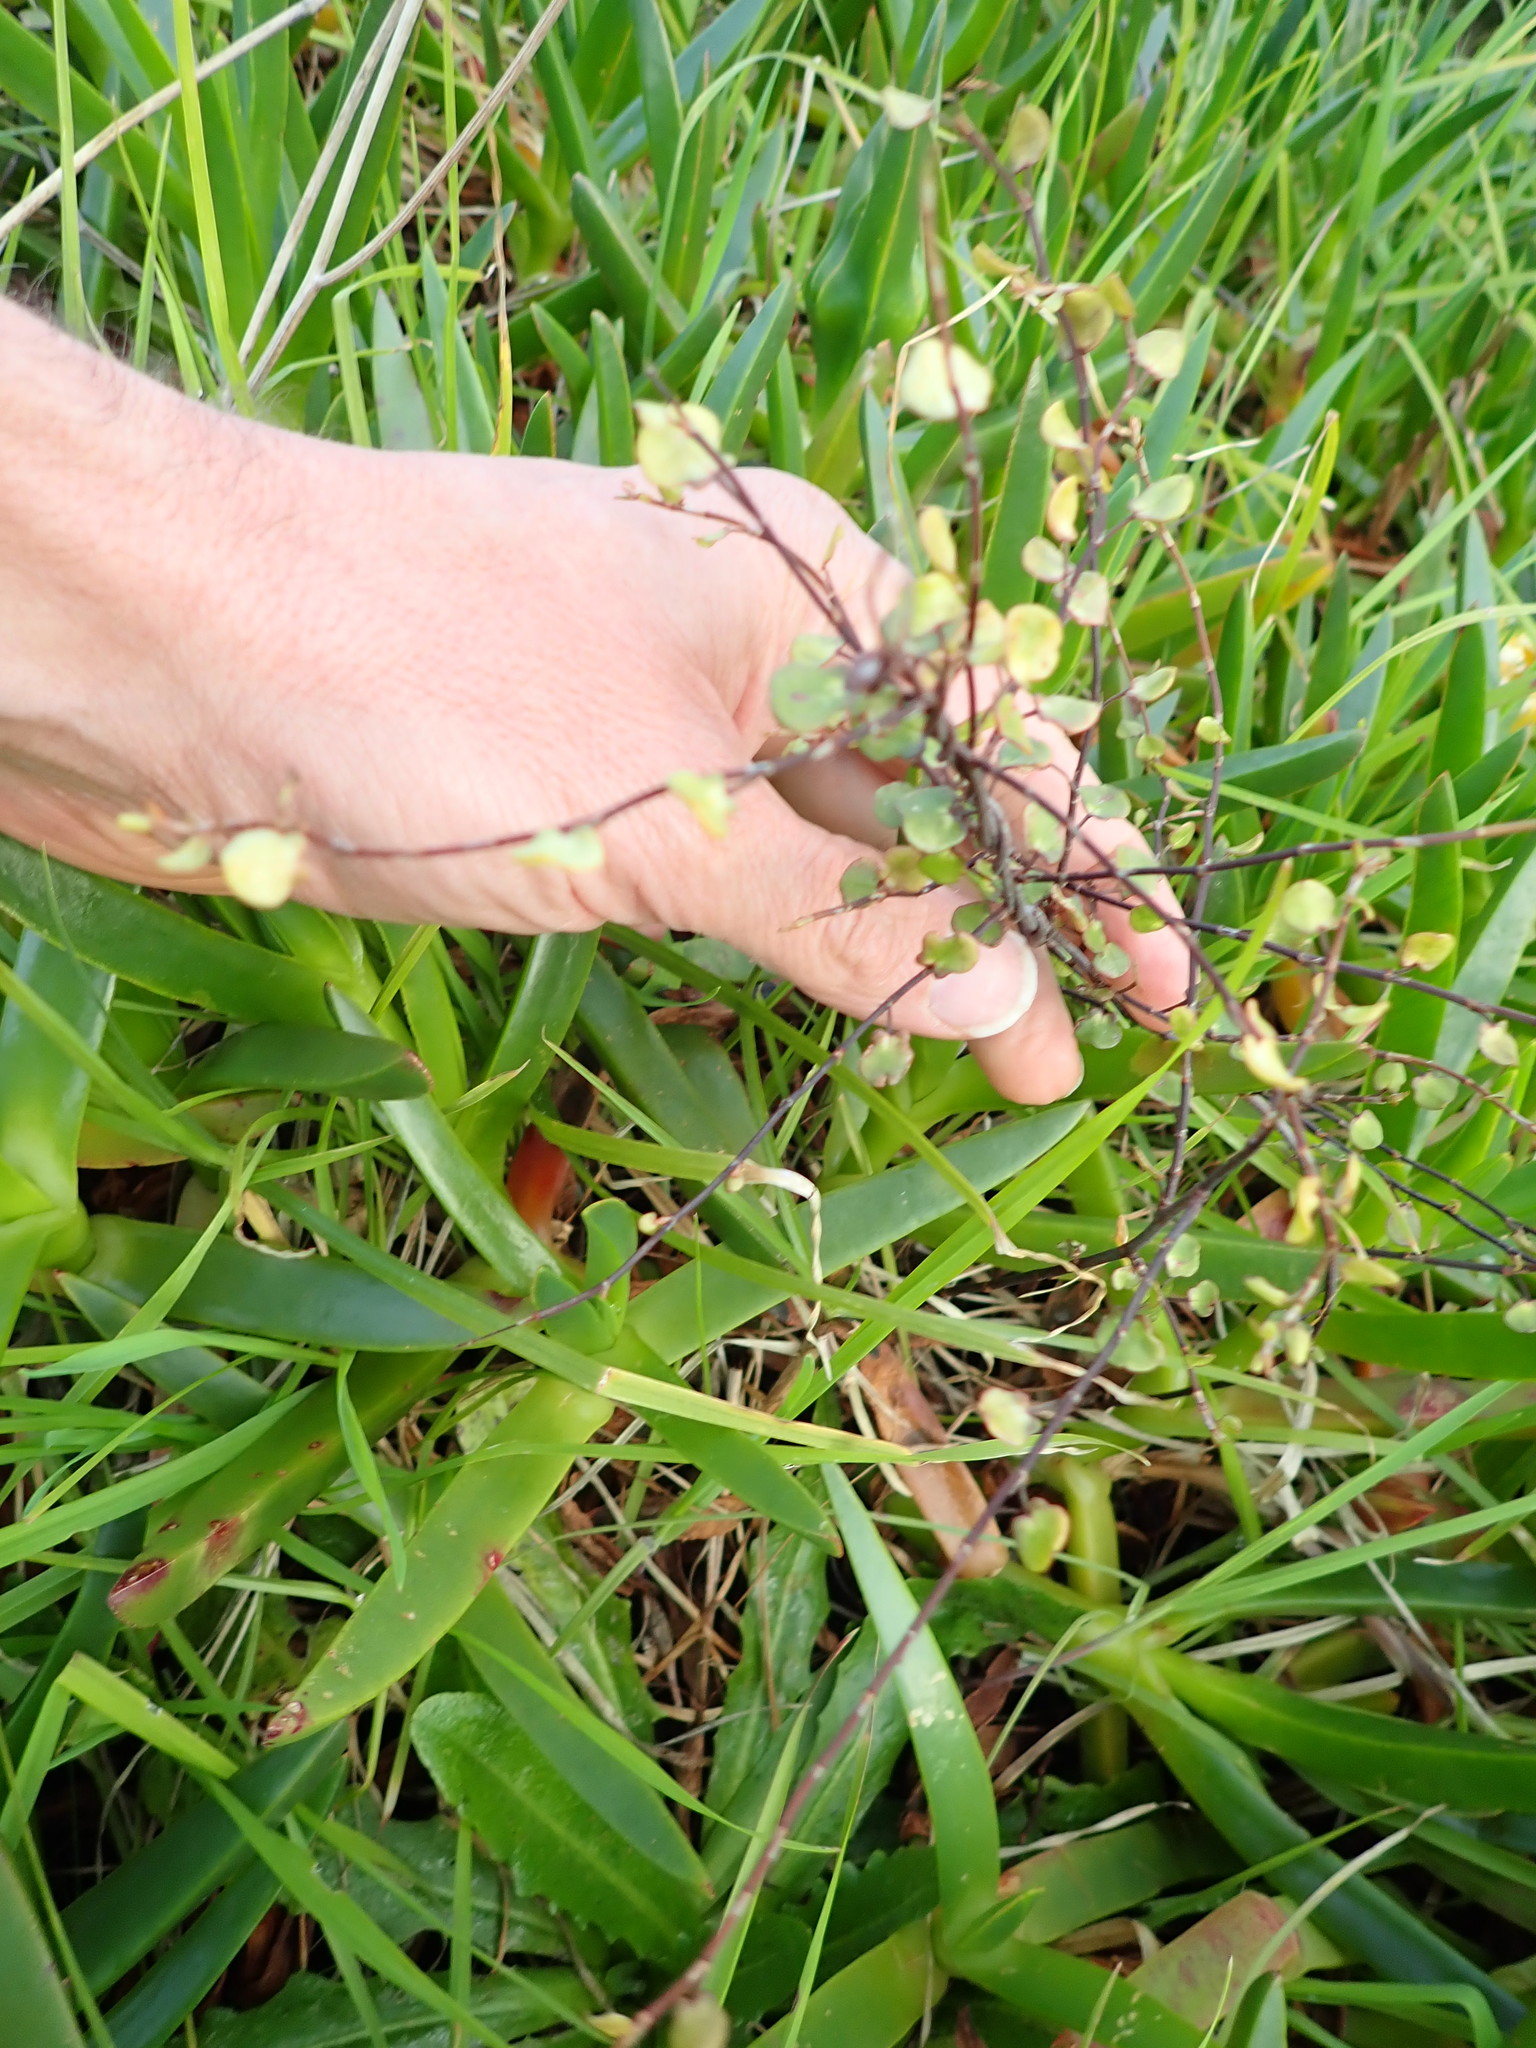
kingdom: Plantae
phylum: Tracheophyta
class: Magnoliopsida
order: Caryophyllales
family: Polygonaceae
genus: Muehlenbeckia
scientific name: Muehlenbeckia complexa
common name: Wireplant
